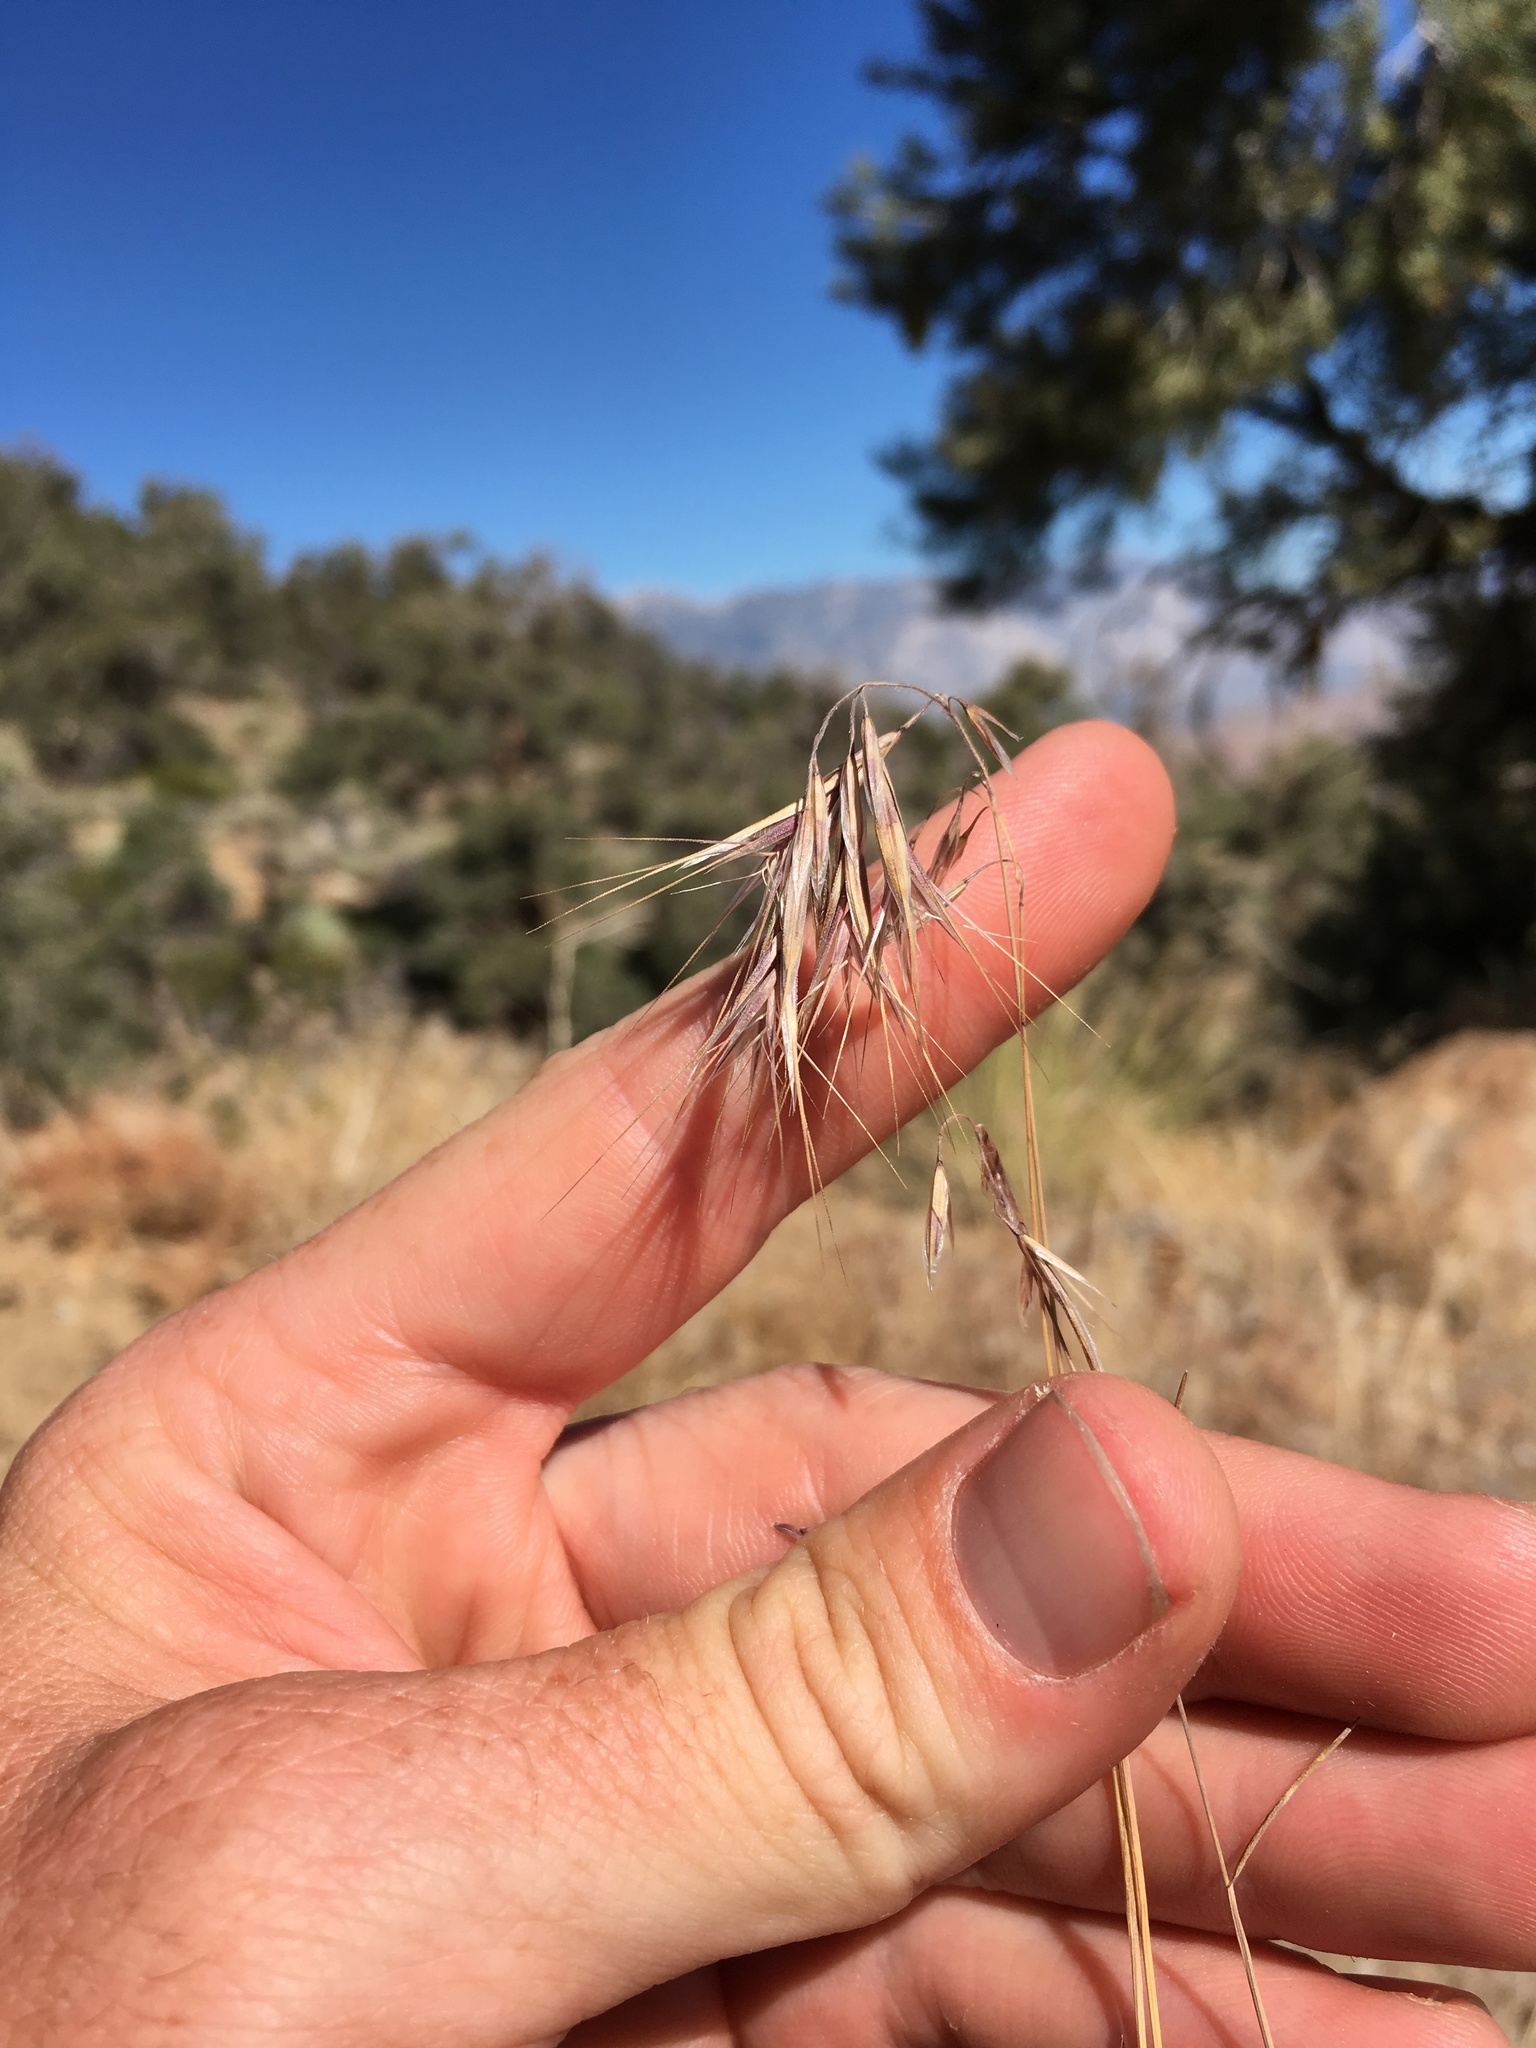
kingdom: Plantae
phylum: Tracheophyta
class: Liliopsida
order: Poales
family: Poaceae
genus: Bromus
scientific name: Bromus tectorum
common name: Cheatgrass
